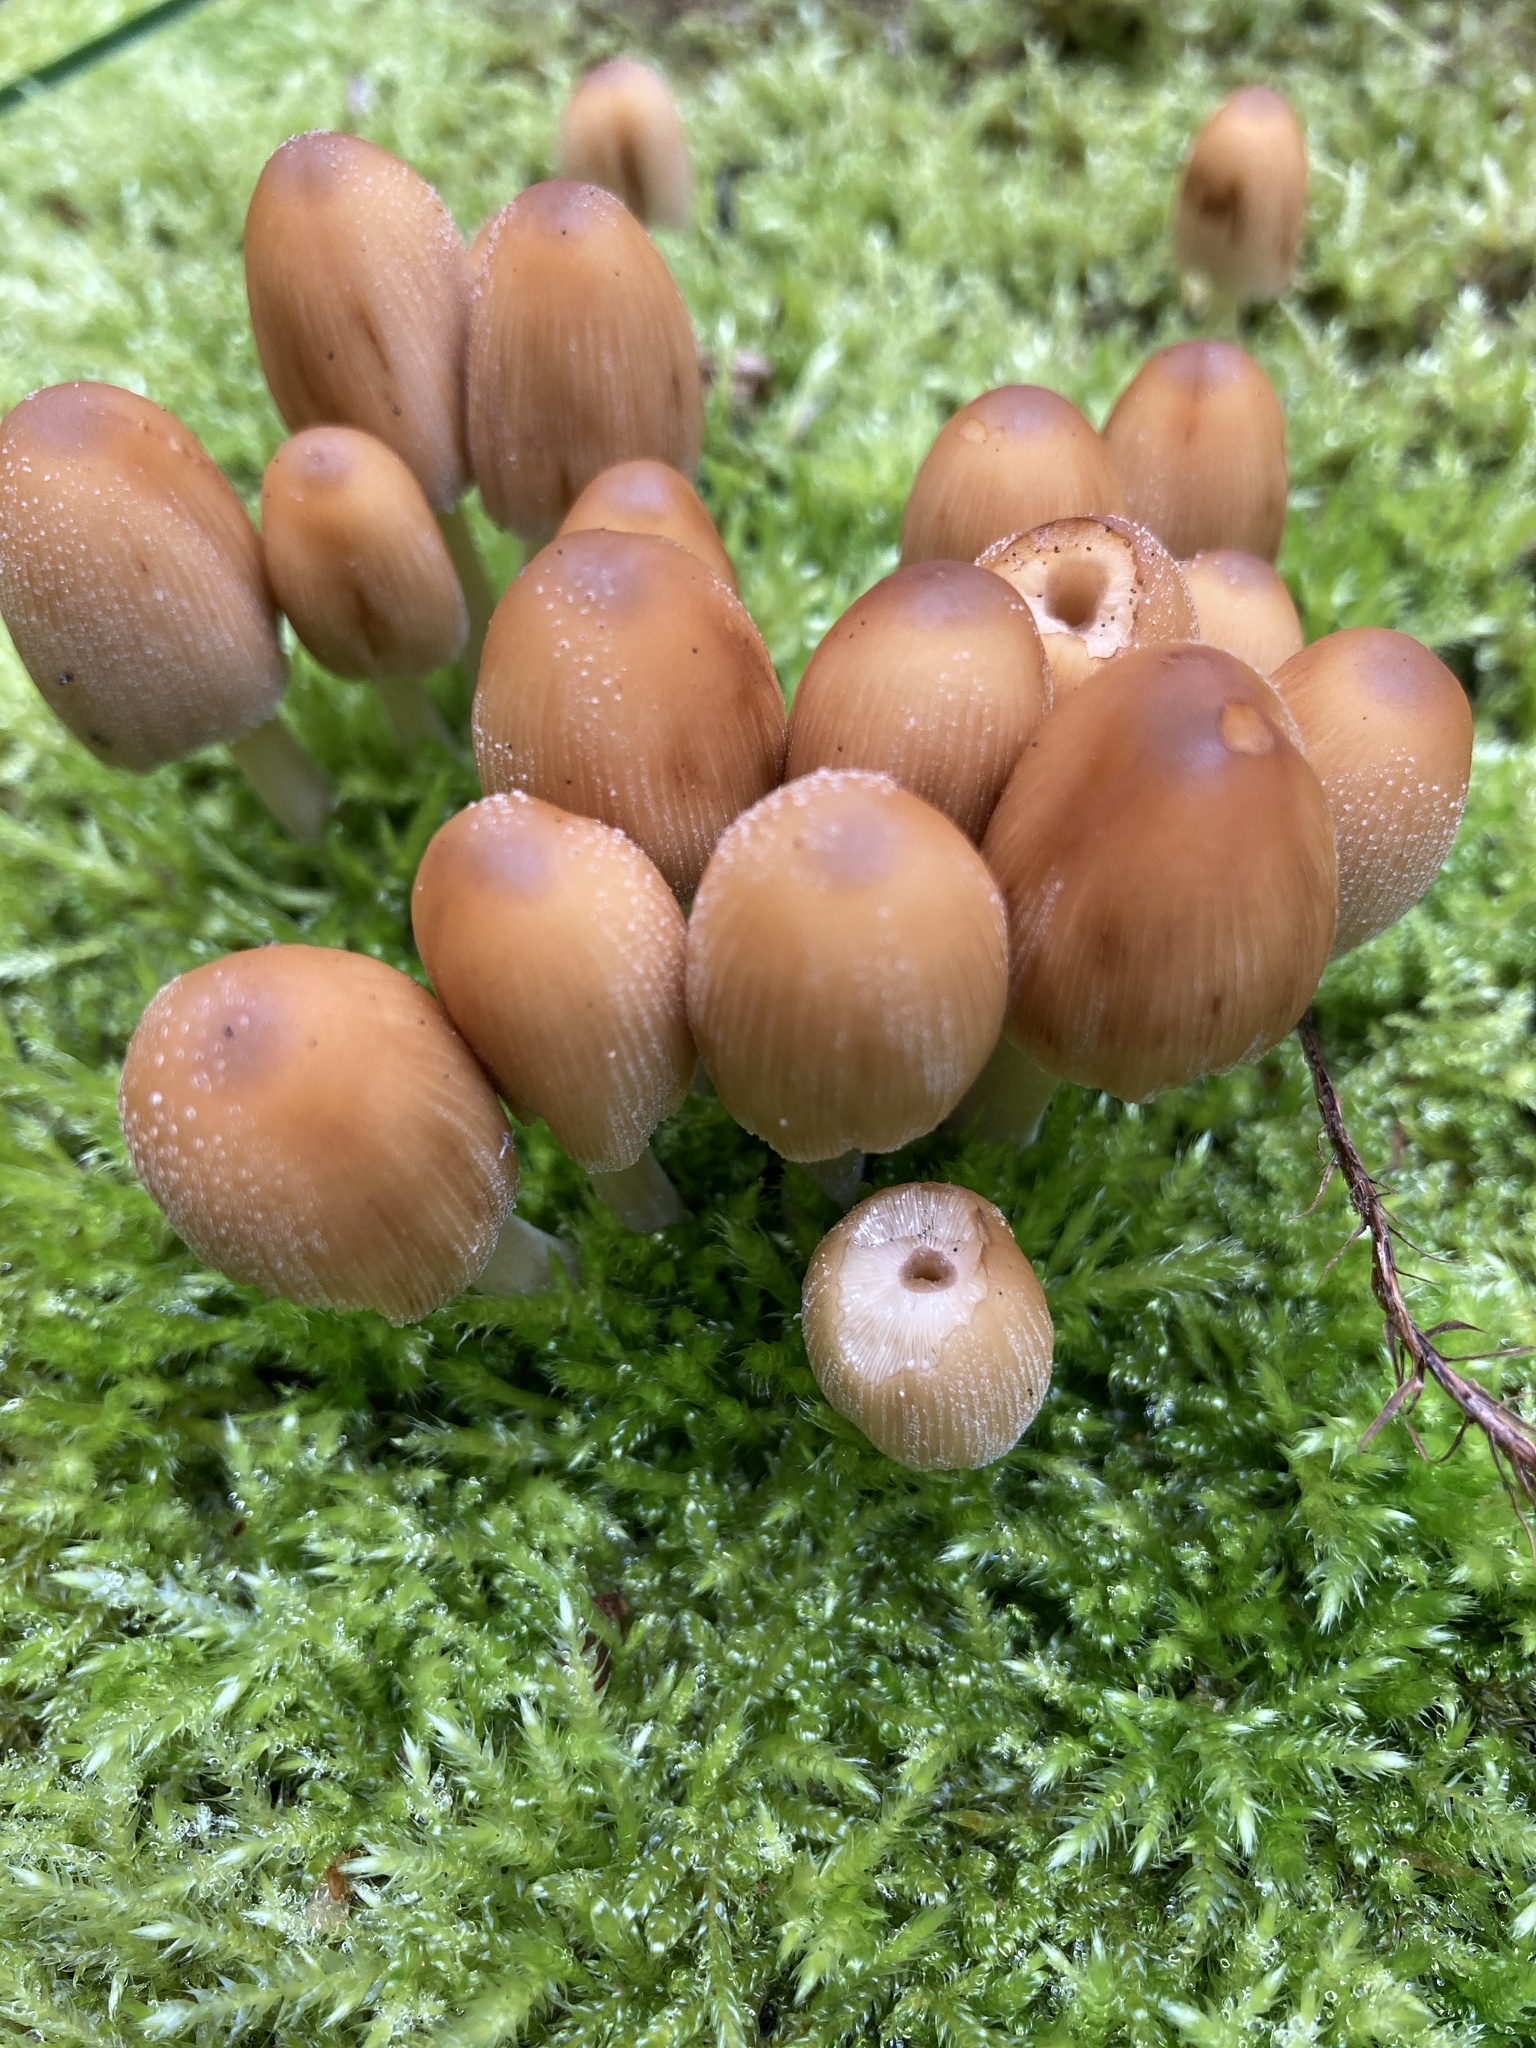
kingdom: Fungi
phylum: Basidiomycota
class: Agaricomycetes
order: Agaricales
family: Psathyrellaceae
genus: Coprinellus
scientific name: Coprinellus micaceus
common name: Glistening ink-cap
